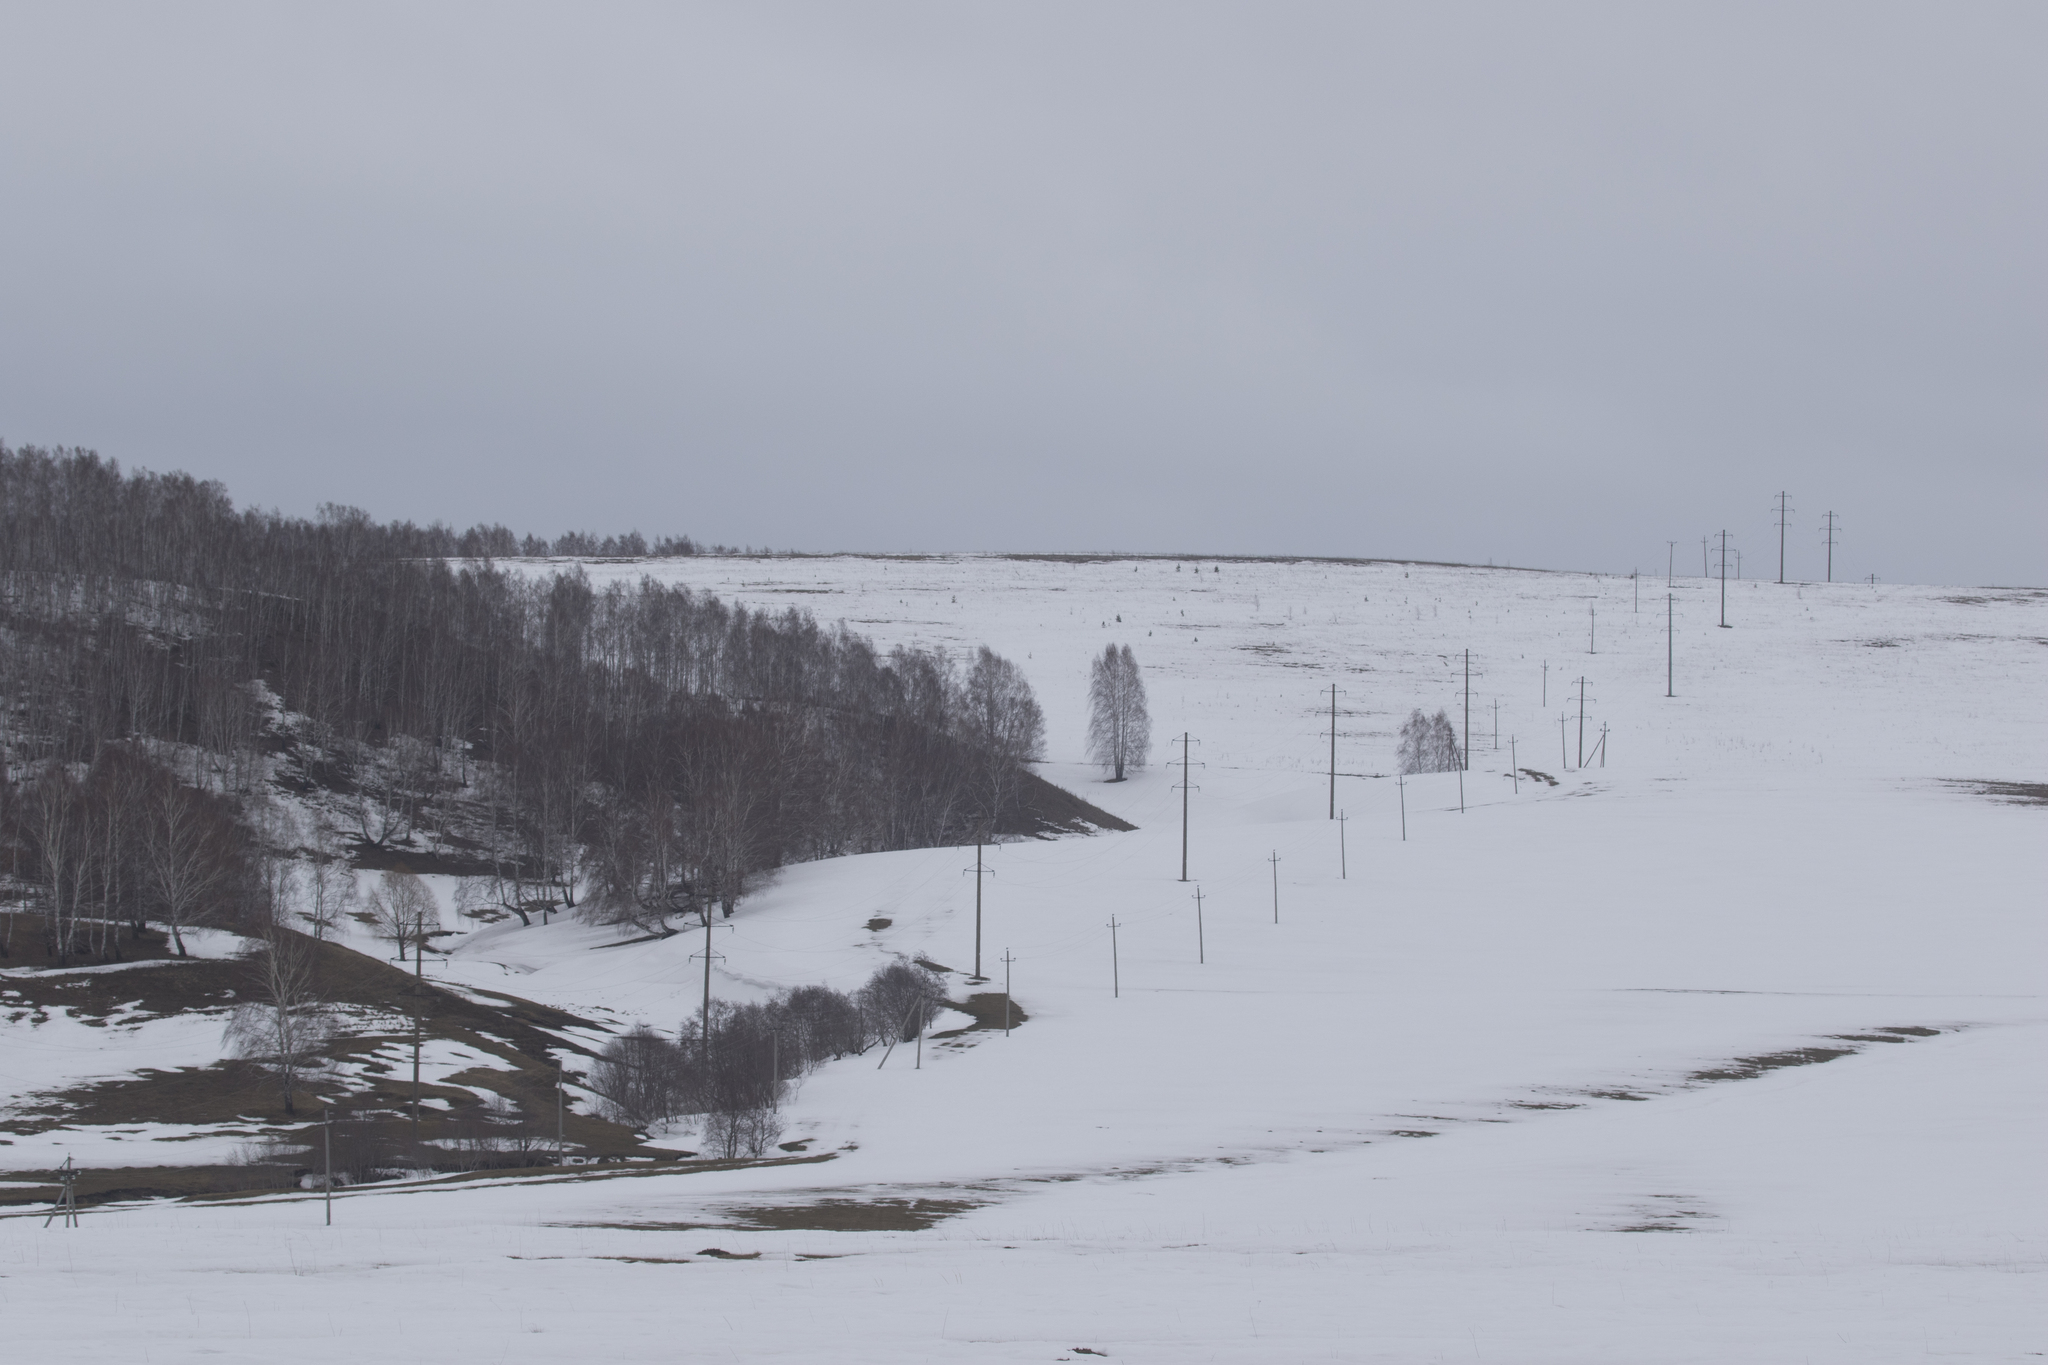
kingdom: Plantae
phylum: Tracheophyta
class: Magnoliopsida
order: Fagales
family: Betulaceae
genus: Betula
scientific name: Betula pendula
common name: Silver birch
